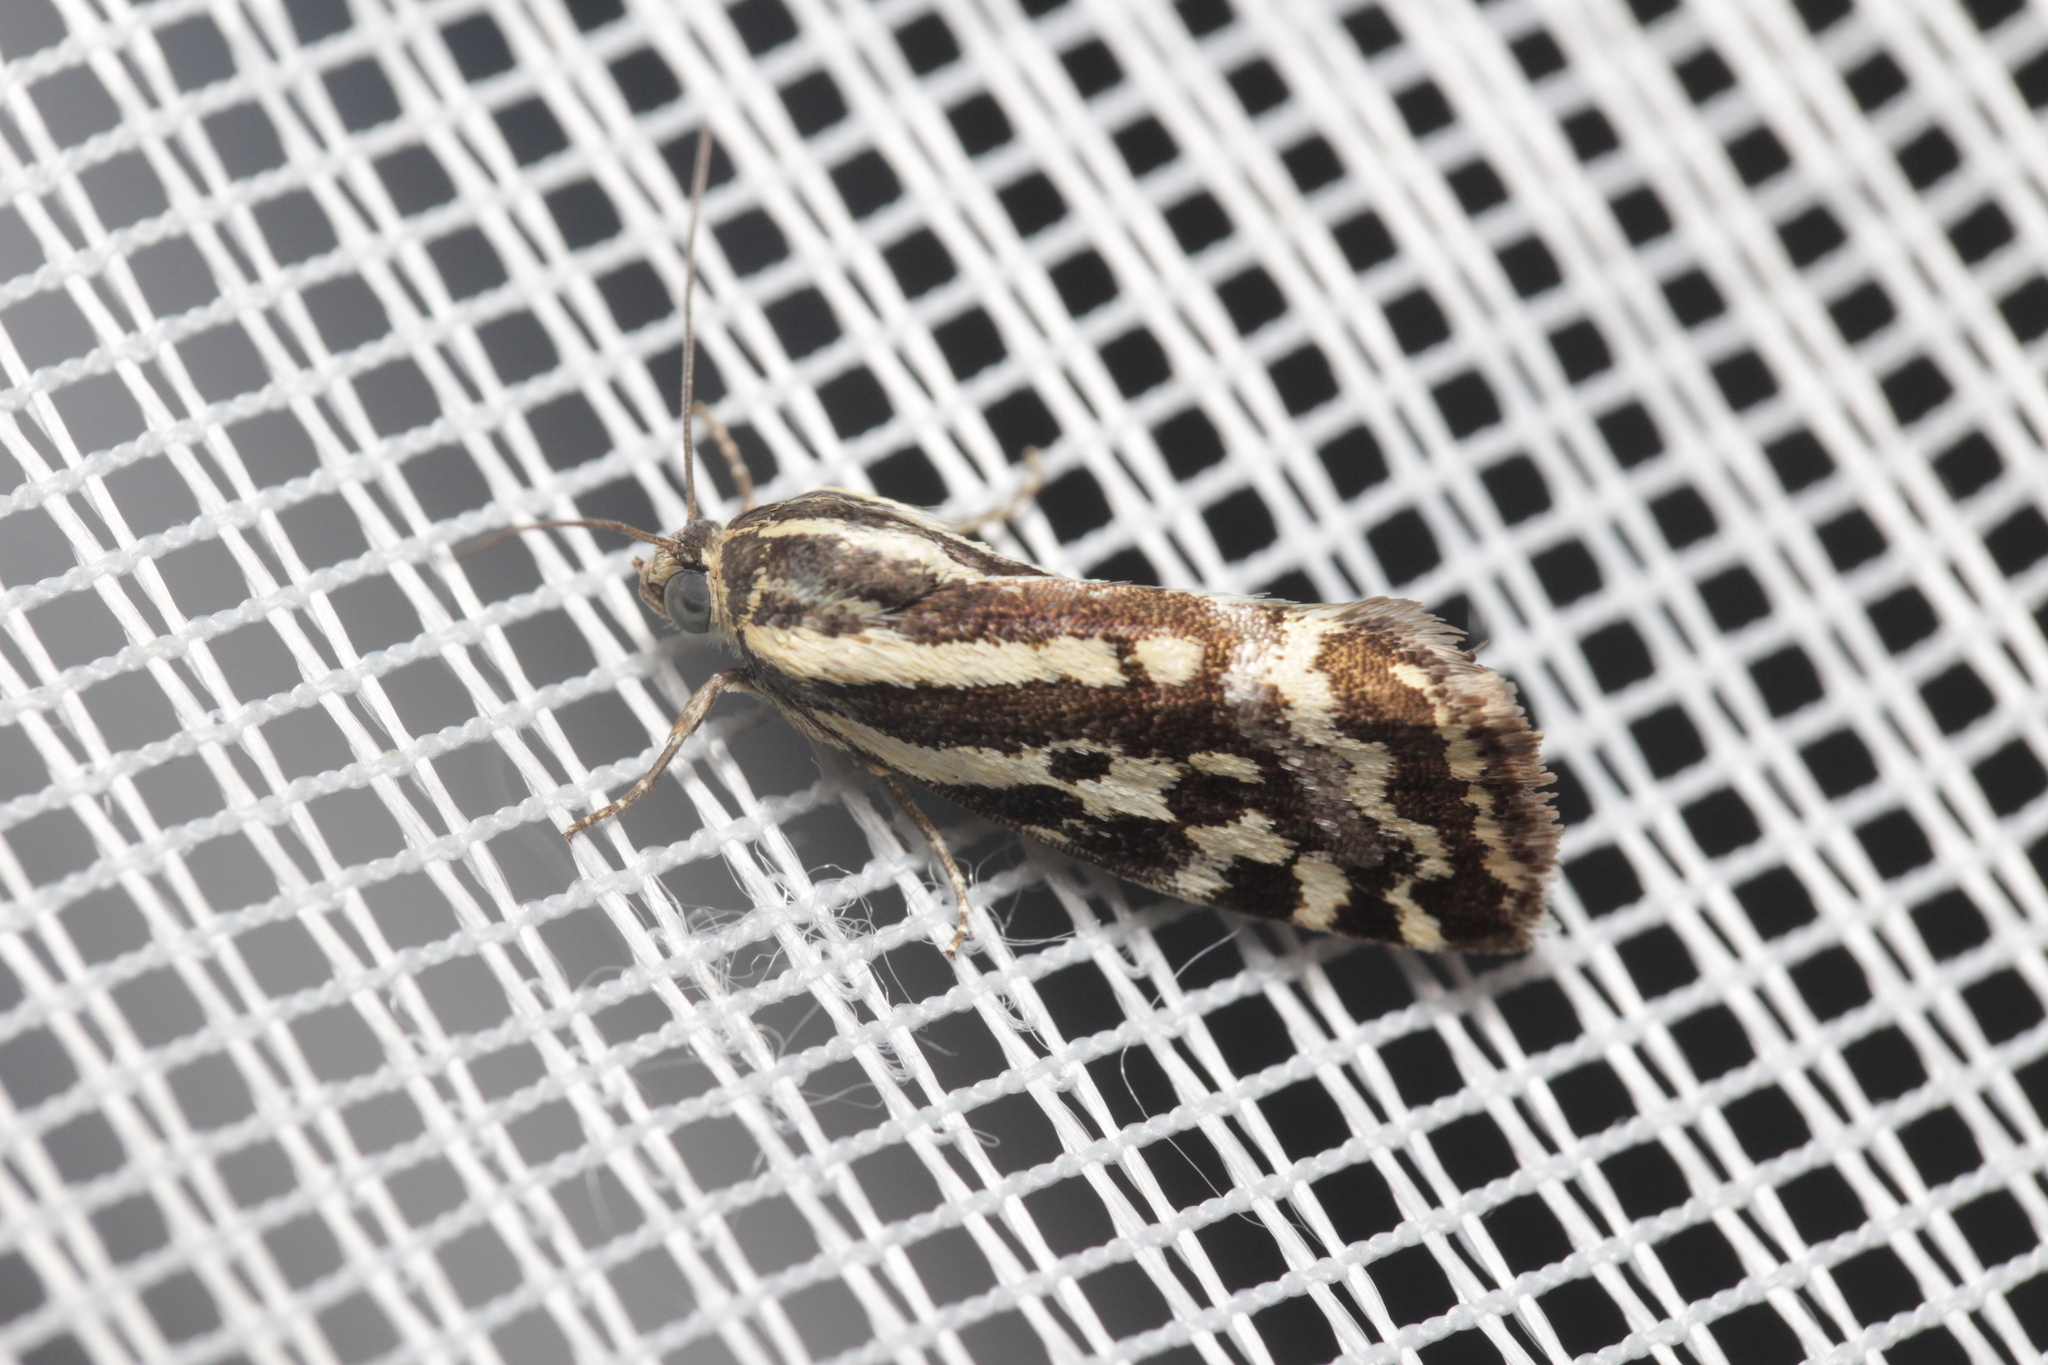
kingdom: Animalia
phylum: Arthropoda
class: Insecta
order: Lepidoptera
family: Noctuidae
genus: Acontia
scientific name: Acontia trabealis
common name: Spotted sulphur
